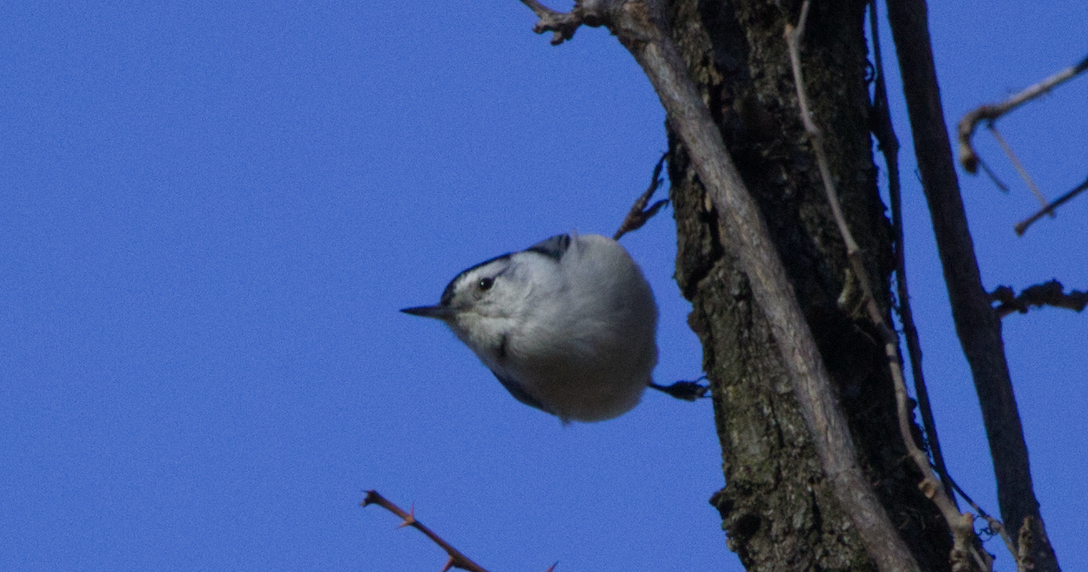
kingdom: Animalia
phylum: Chordata
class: Aves
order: Passeriformes
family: Sittidae
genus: Sitta
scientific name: Sitta carolinensis
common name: White-breasted nuthatch
